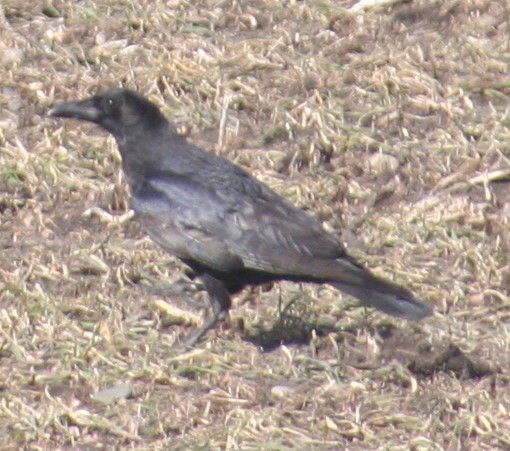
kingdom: Animalia
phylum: Chordata
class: Aves
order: Passeriformes
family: Corvidae
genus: Corvus
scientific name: Corvus brachyrhynchos
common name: American crow
